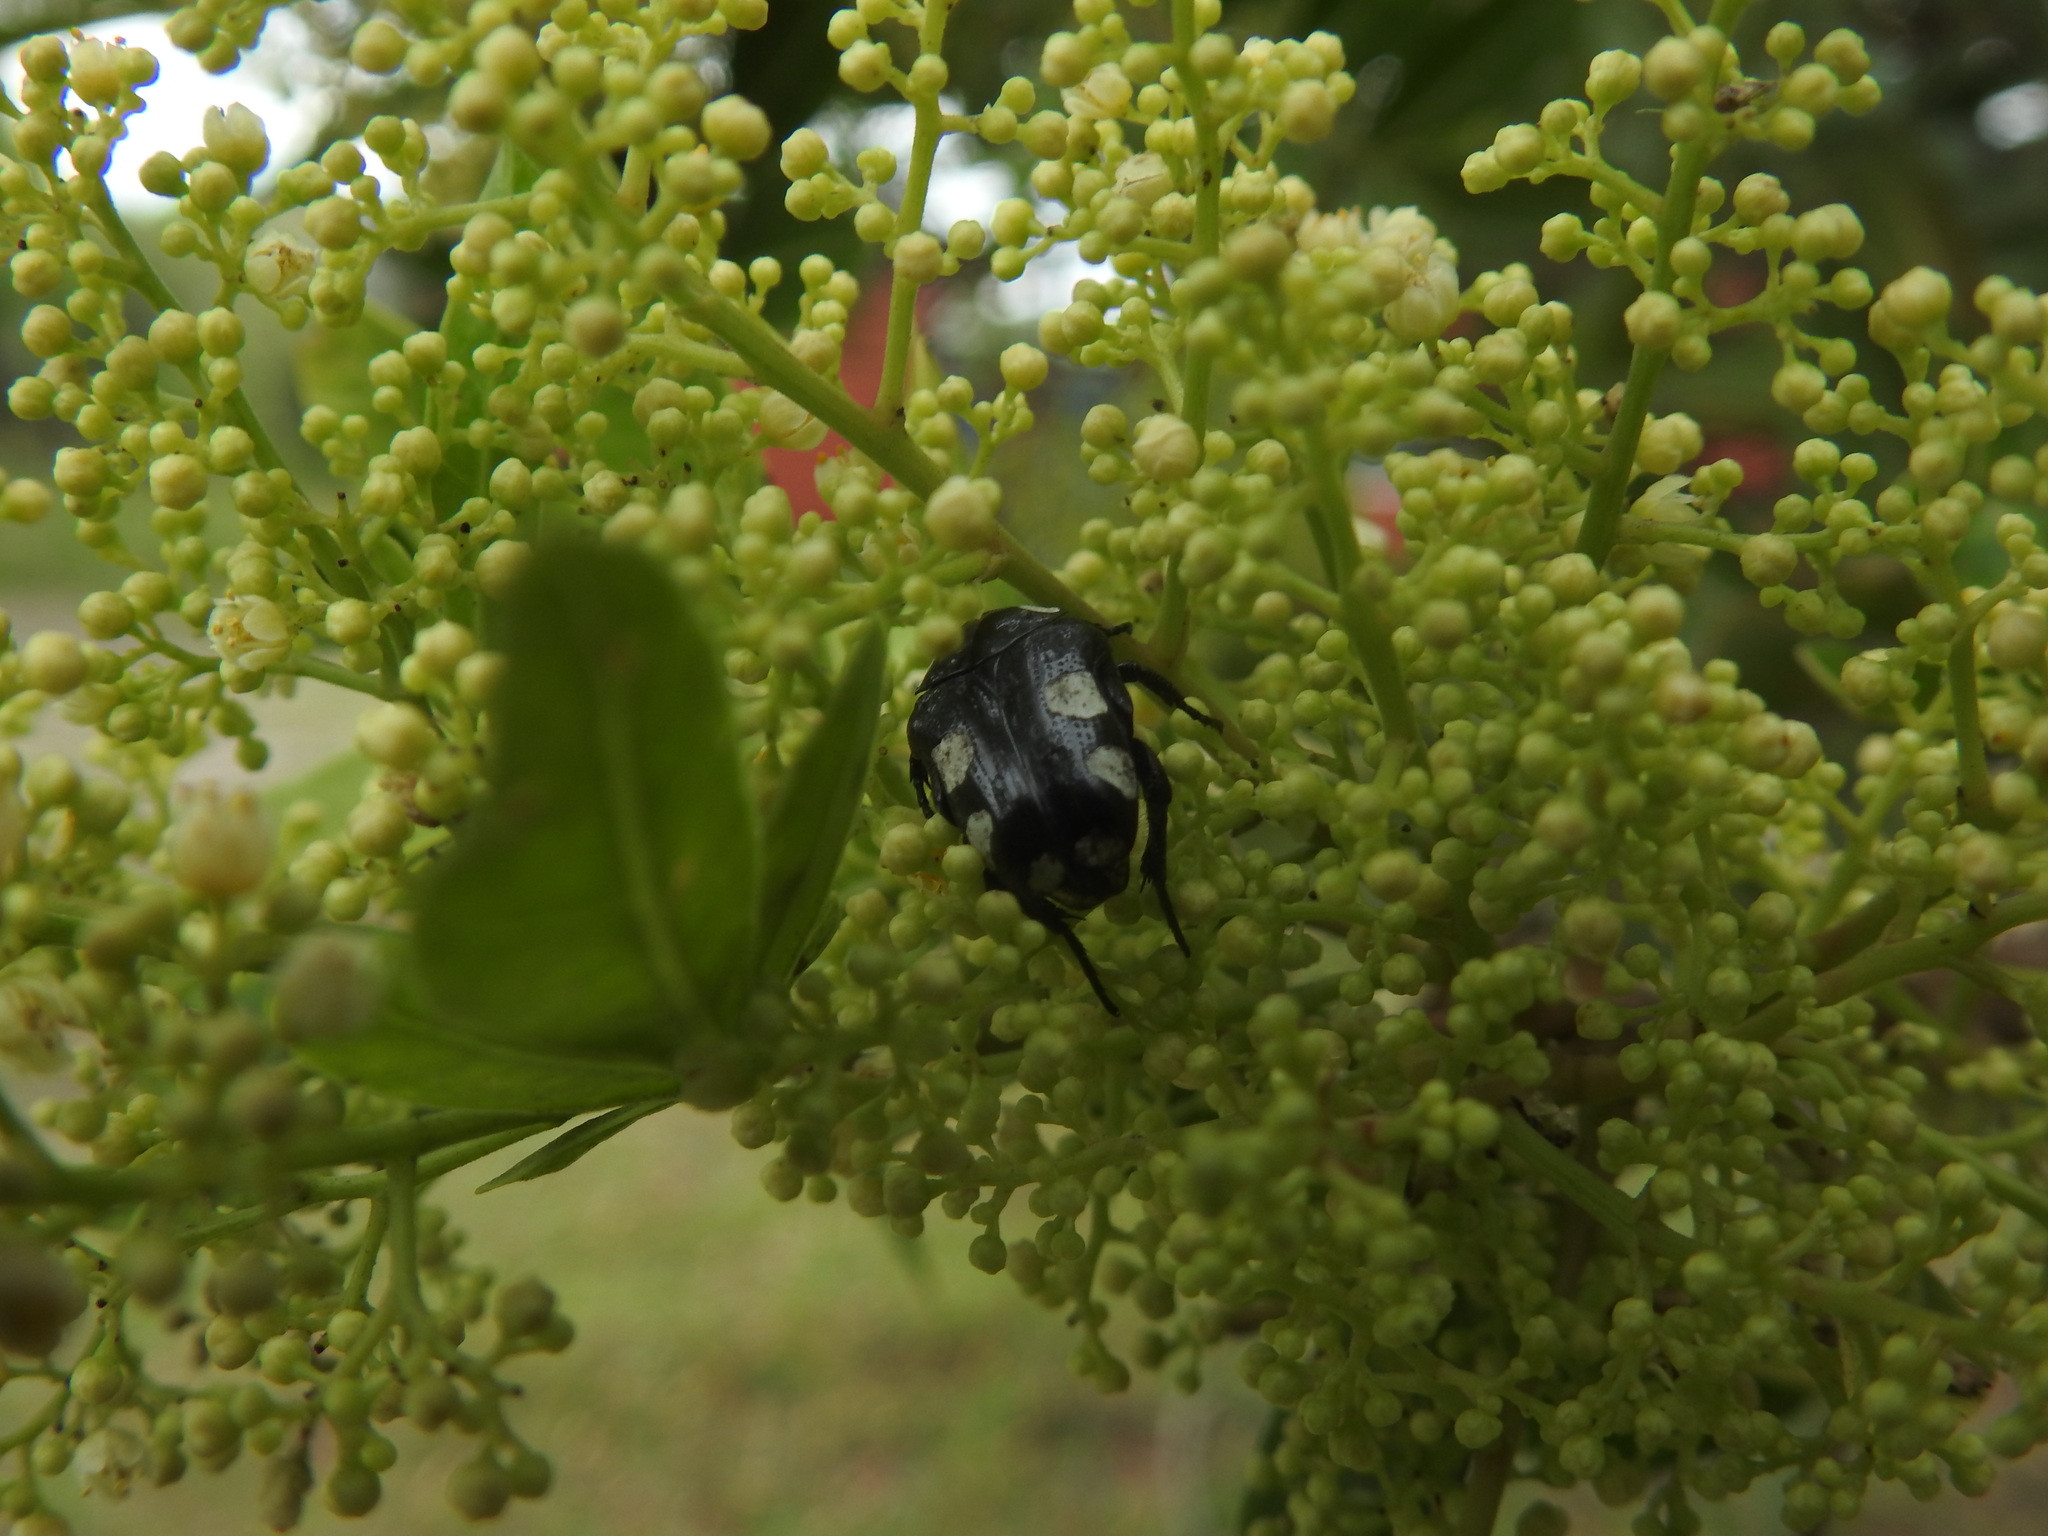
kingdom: Animalia
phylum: Arthropoda
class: Insecta
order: Coleoptera
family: Scarabaeidae
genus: Mausoleopsis
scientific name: Mausoleopsis amabilis
